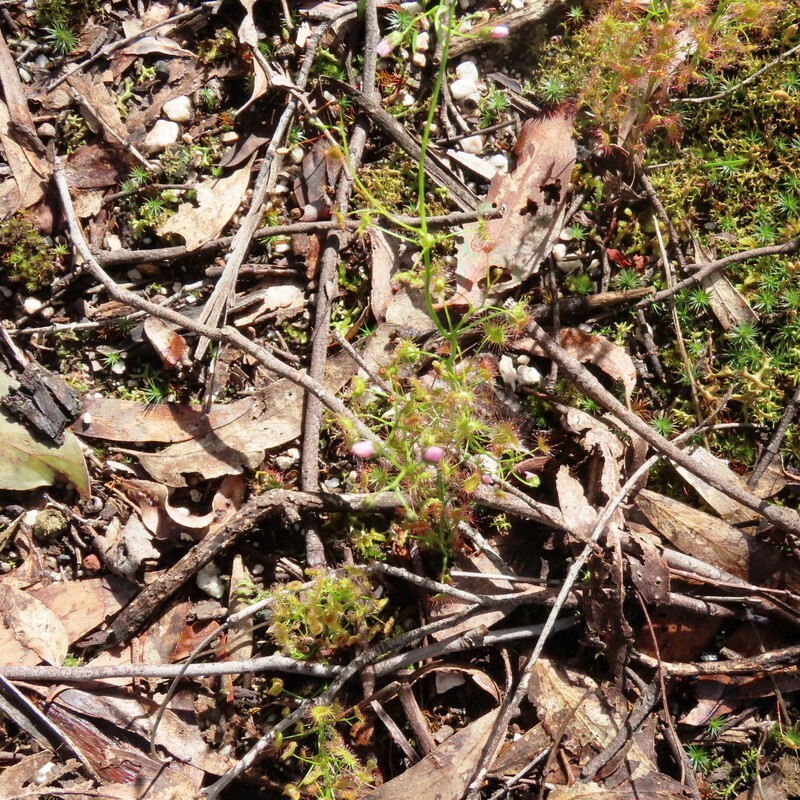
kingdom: Plantae
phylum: Tracheophyta
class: Magnoliopsida
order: Caryophyllales
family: Droseraceae
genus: Drosera
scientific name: Drosera peltata
